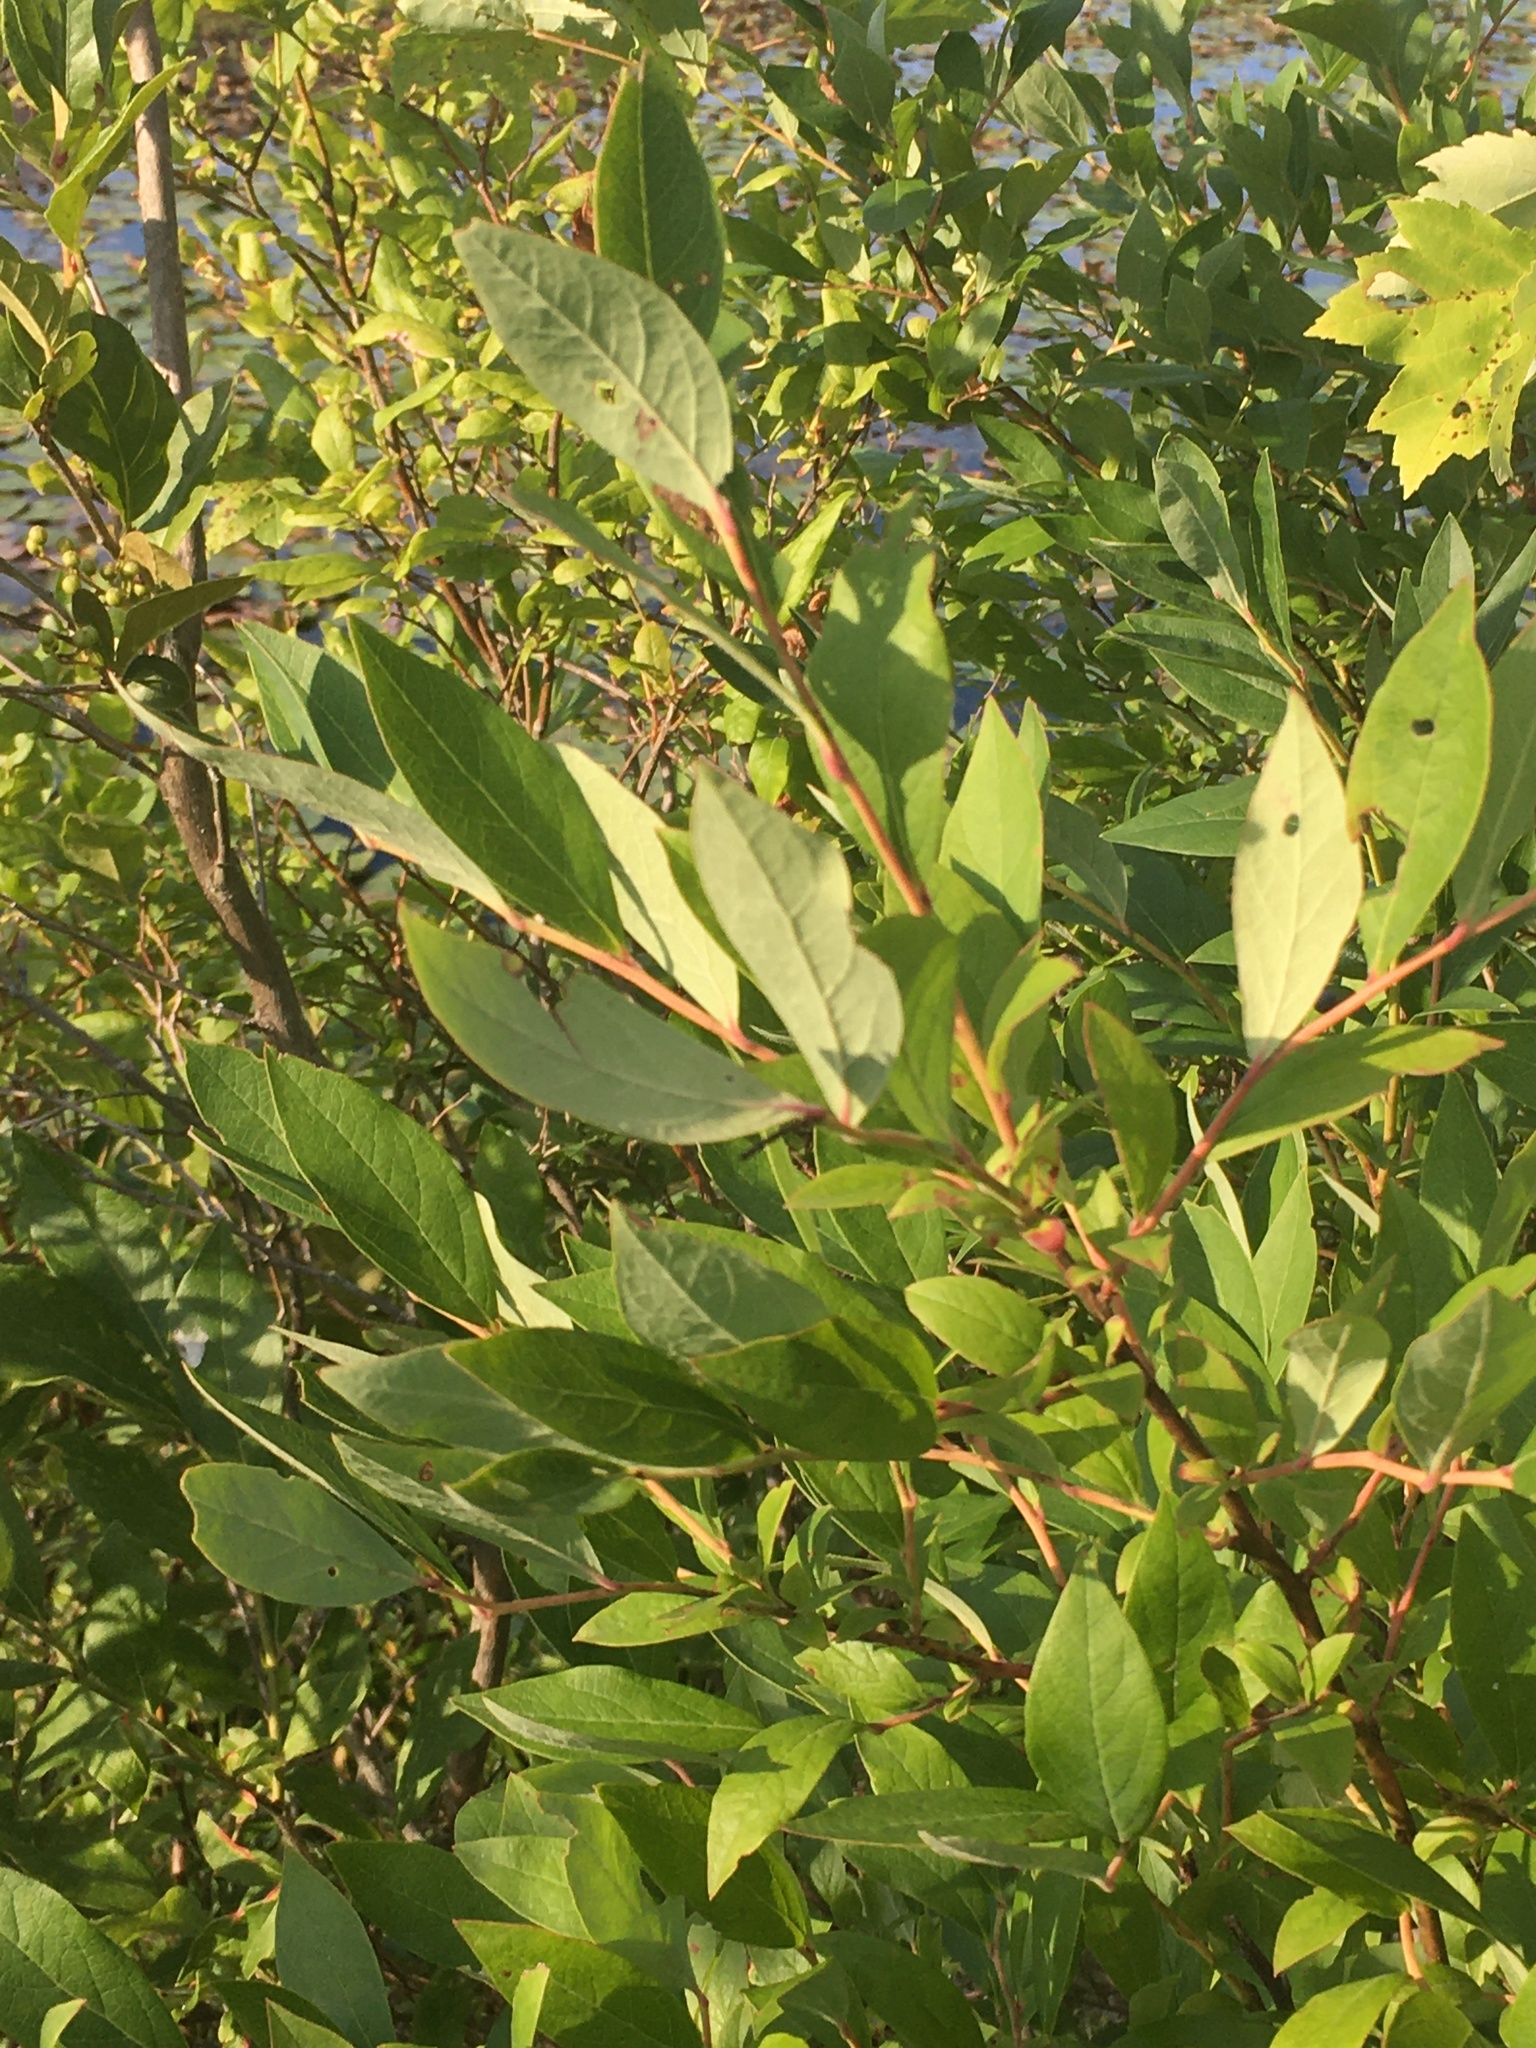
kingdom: Plantae
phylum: Tracheophyta
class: Magnoliopsida
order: Ericales
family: Ericaceae
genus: Vaccinium
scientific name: Vaccinium corymbosum
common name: Blueberry
